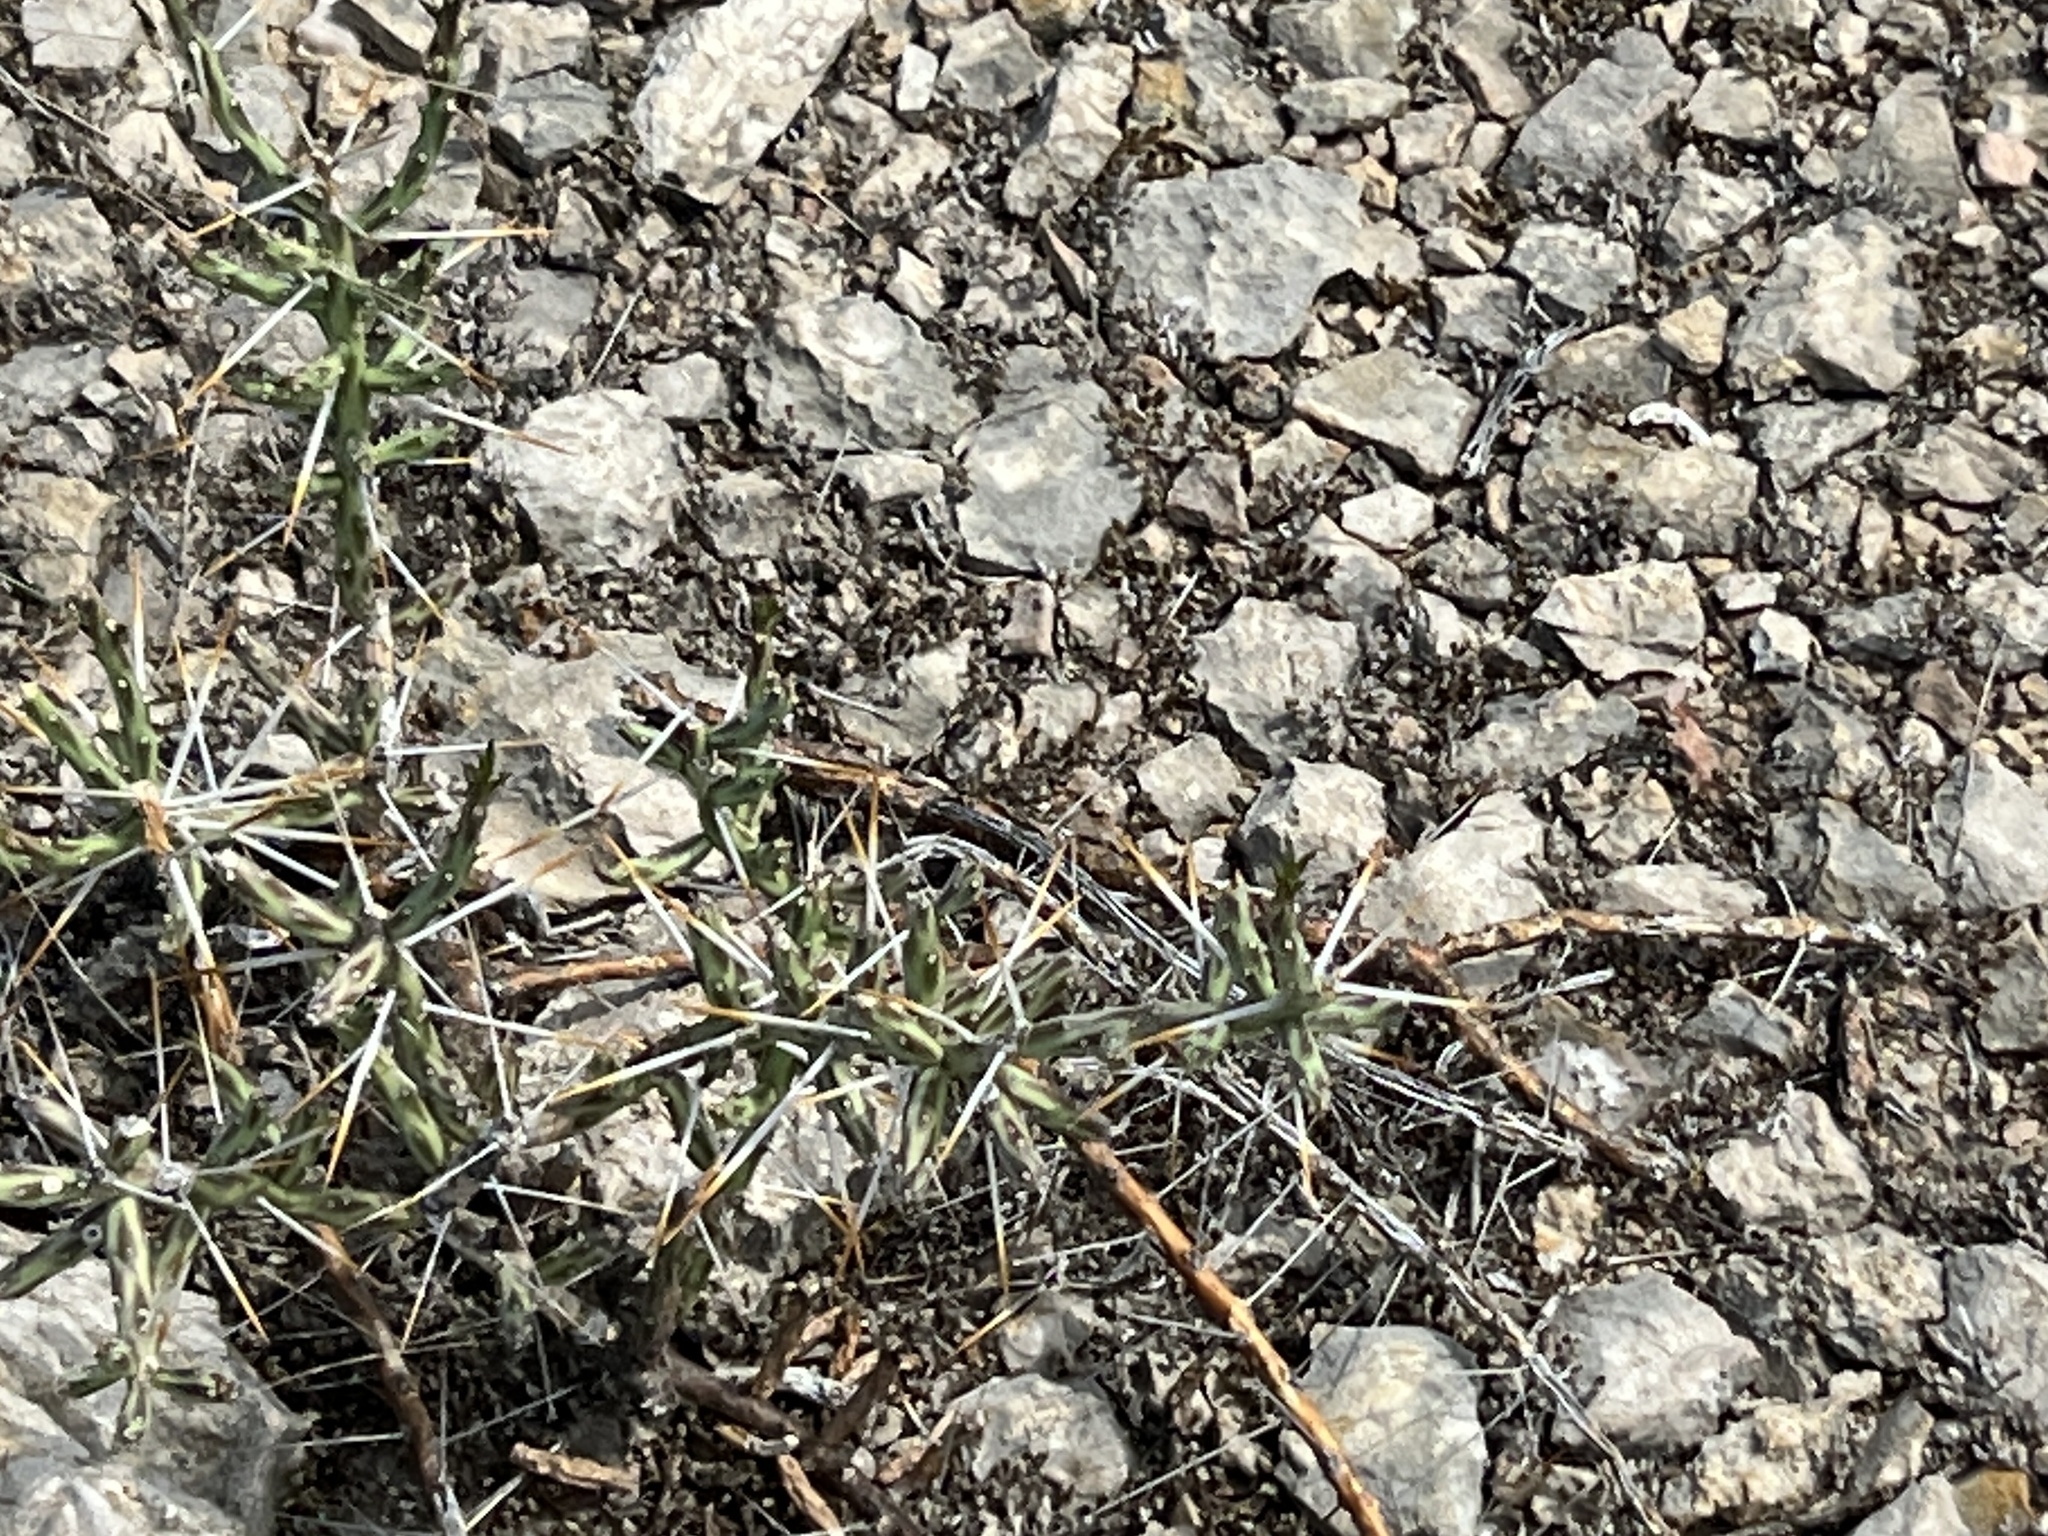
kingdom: Plantae
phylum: Tracheophyta
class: Magnoliopsida
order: Caryophyllales
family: Cactaceae
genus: Cylindropuntia
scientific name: Cylindropuntia leptocaulis
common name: Christmas cactus
